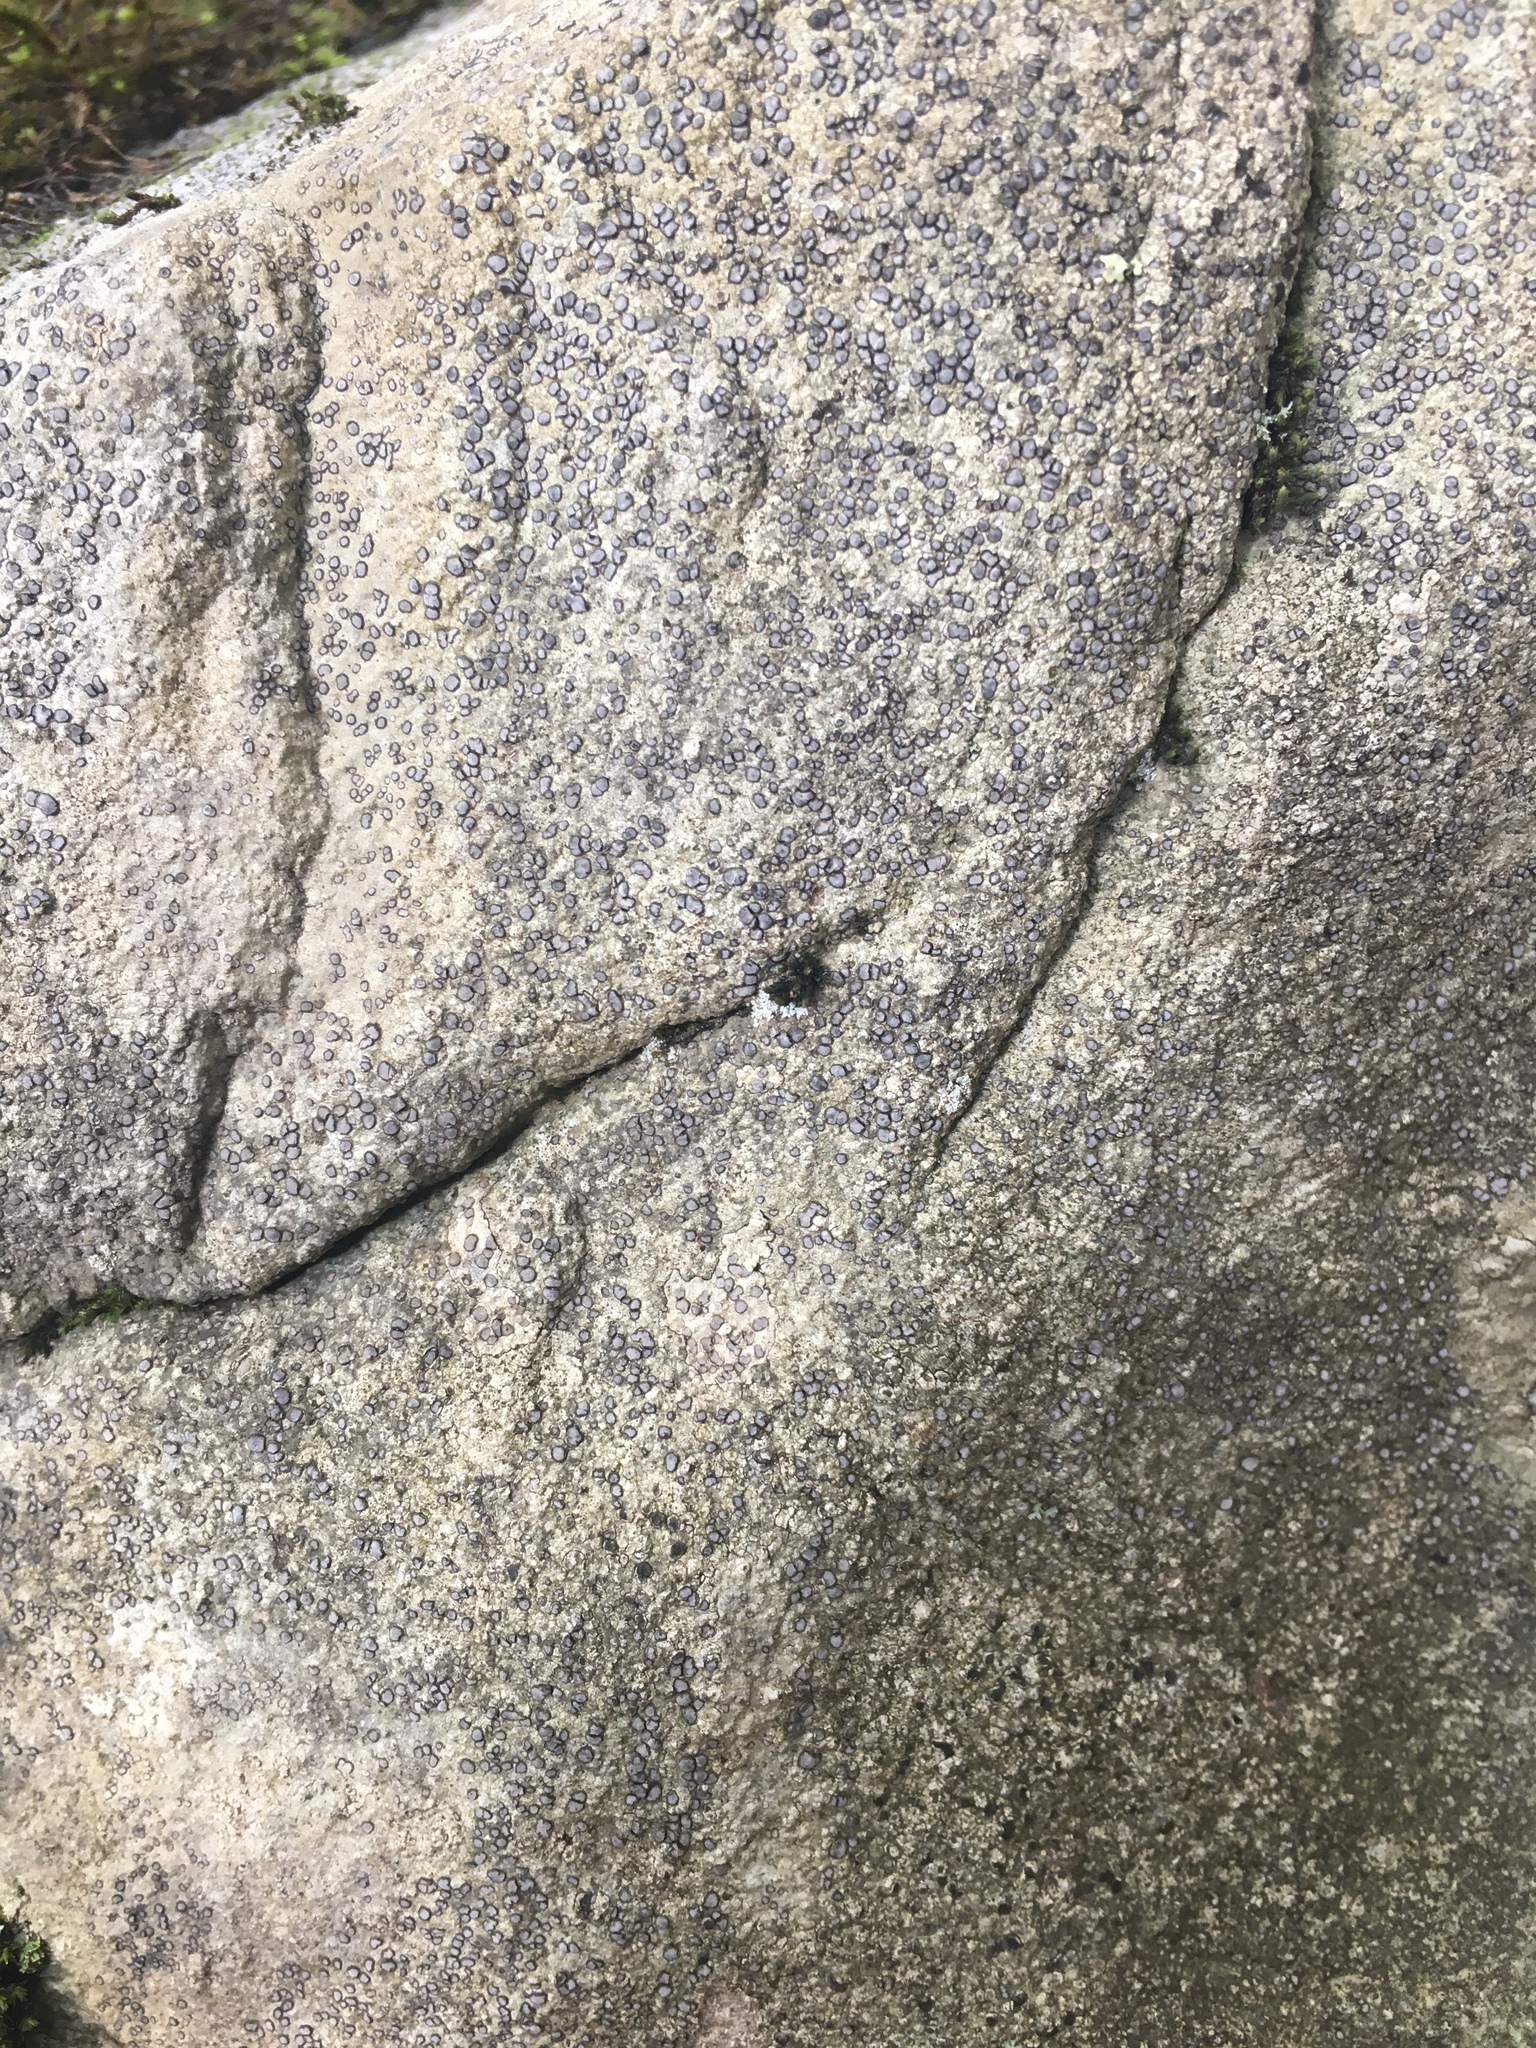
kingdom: Fungi
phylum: Ascomycota
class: Lecanoromycetes
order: Lecideales
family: Lecideaceae
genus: Porpidia
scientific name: Porpidia albocaerulescens
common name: Smokey-eyed boulder lichen
